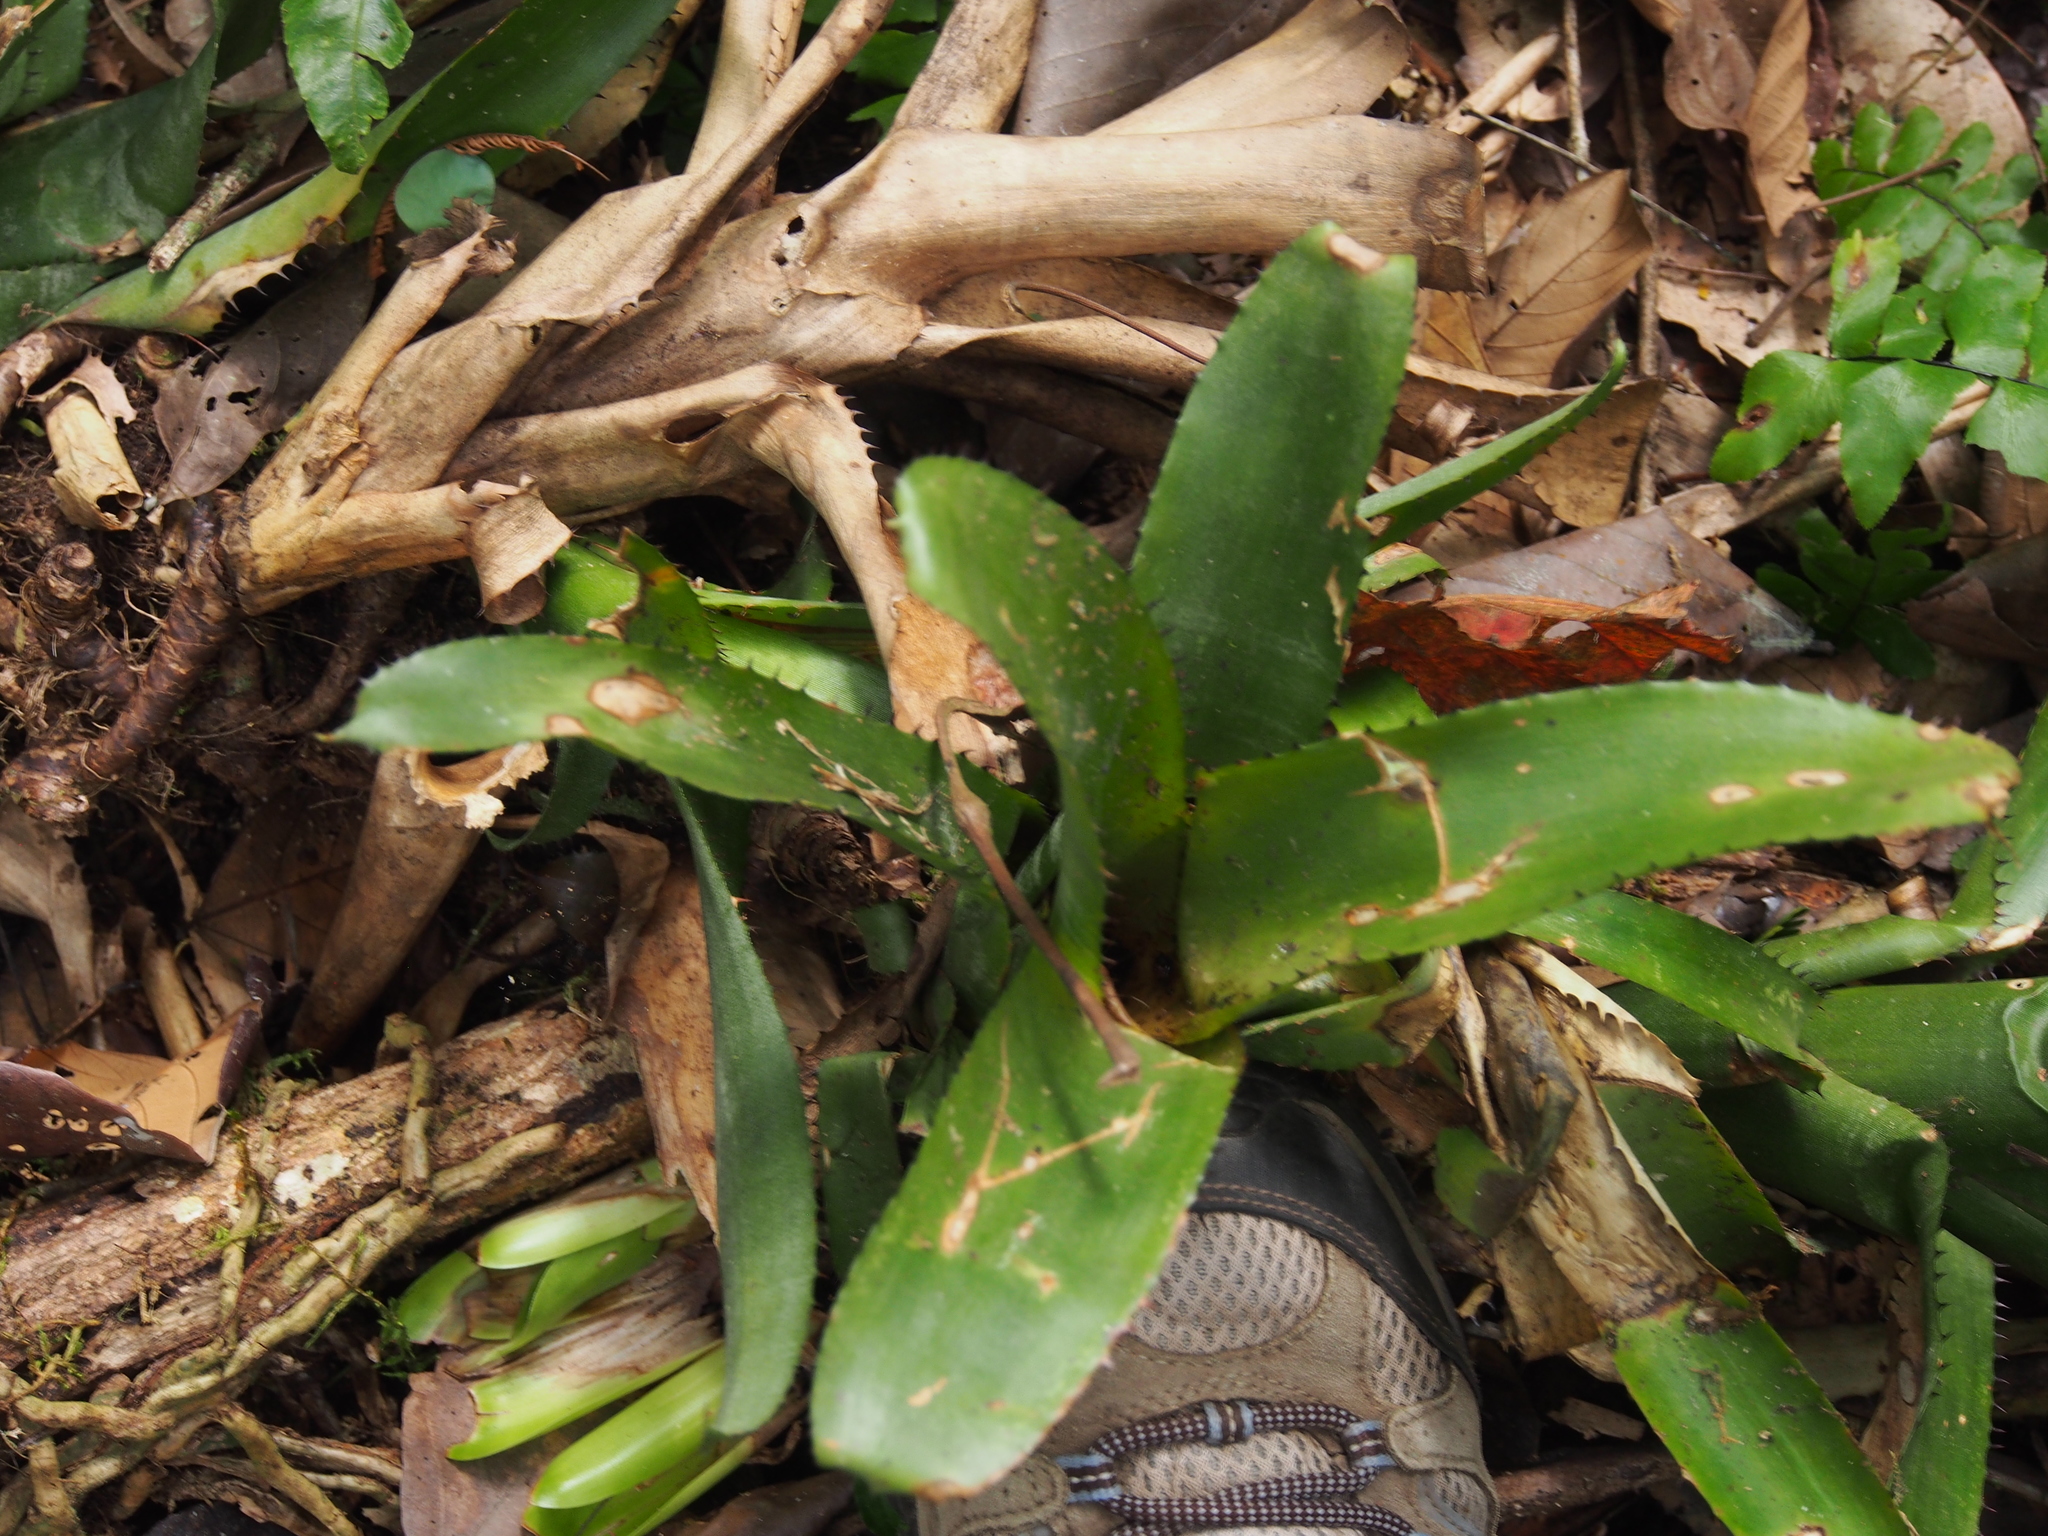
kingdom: Plantae
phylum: Tracheophyta
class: Liliopsida
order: Poales
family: Bromeliaceae
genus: Aechmea
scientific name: Aechmea nudicaulis
